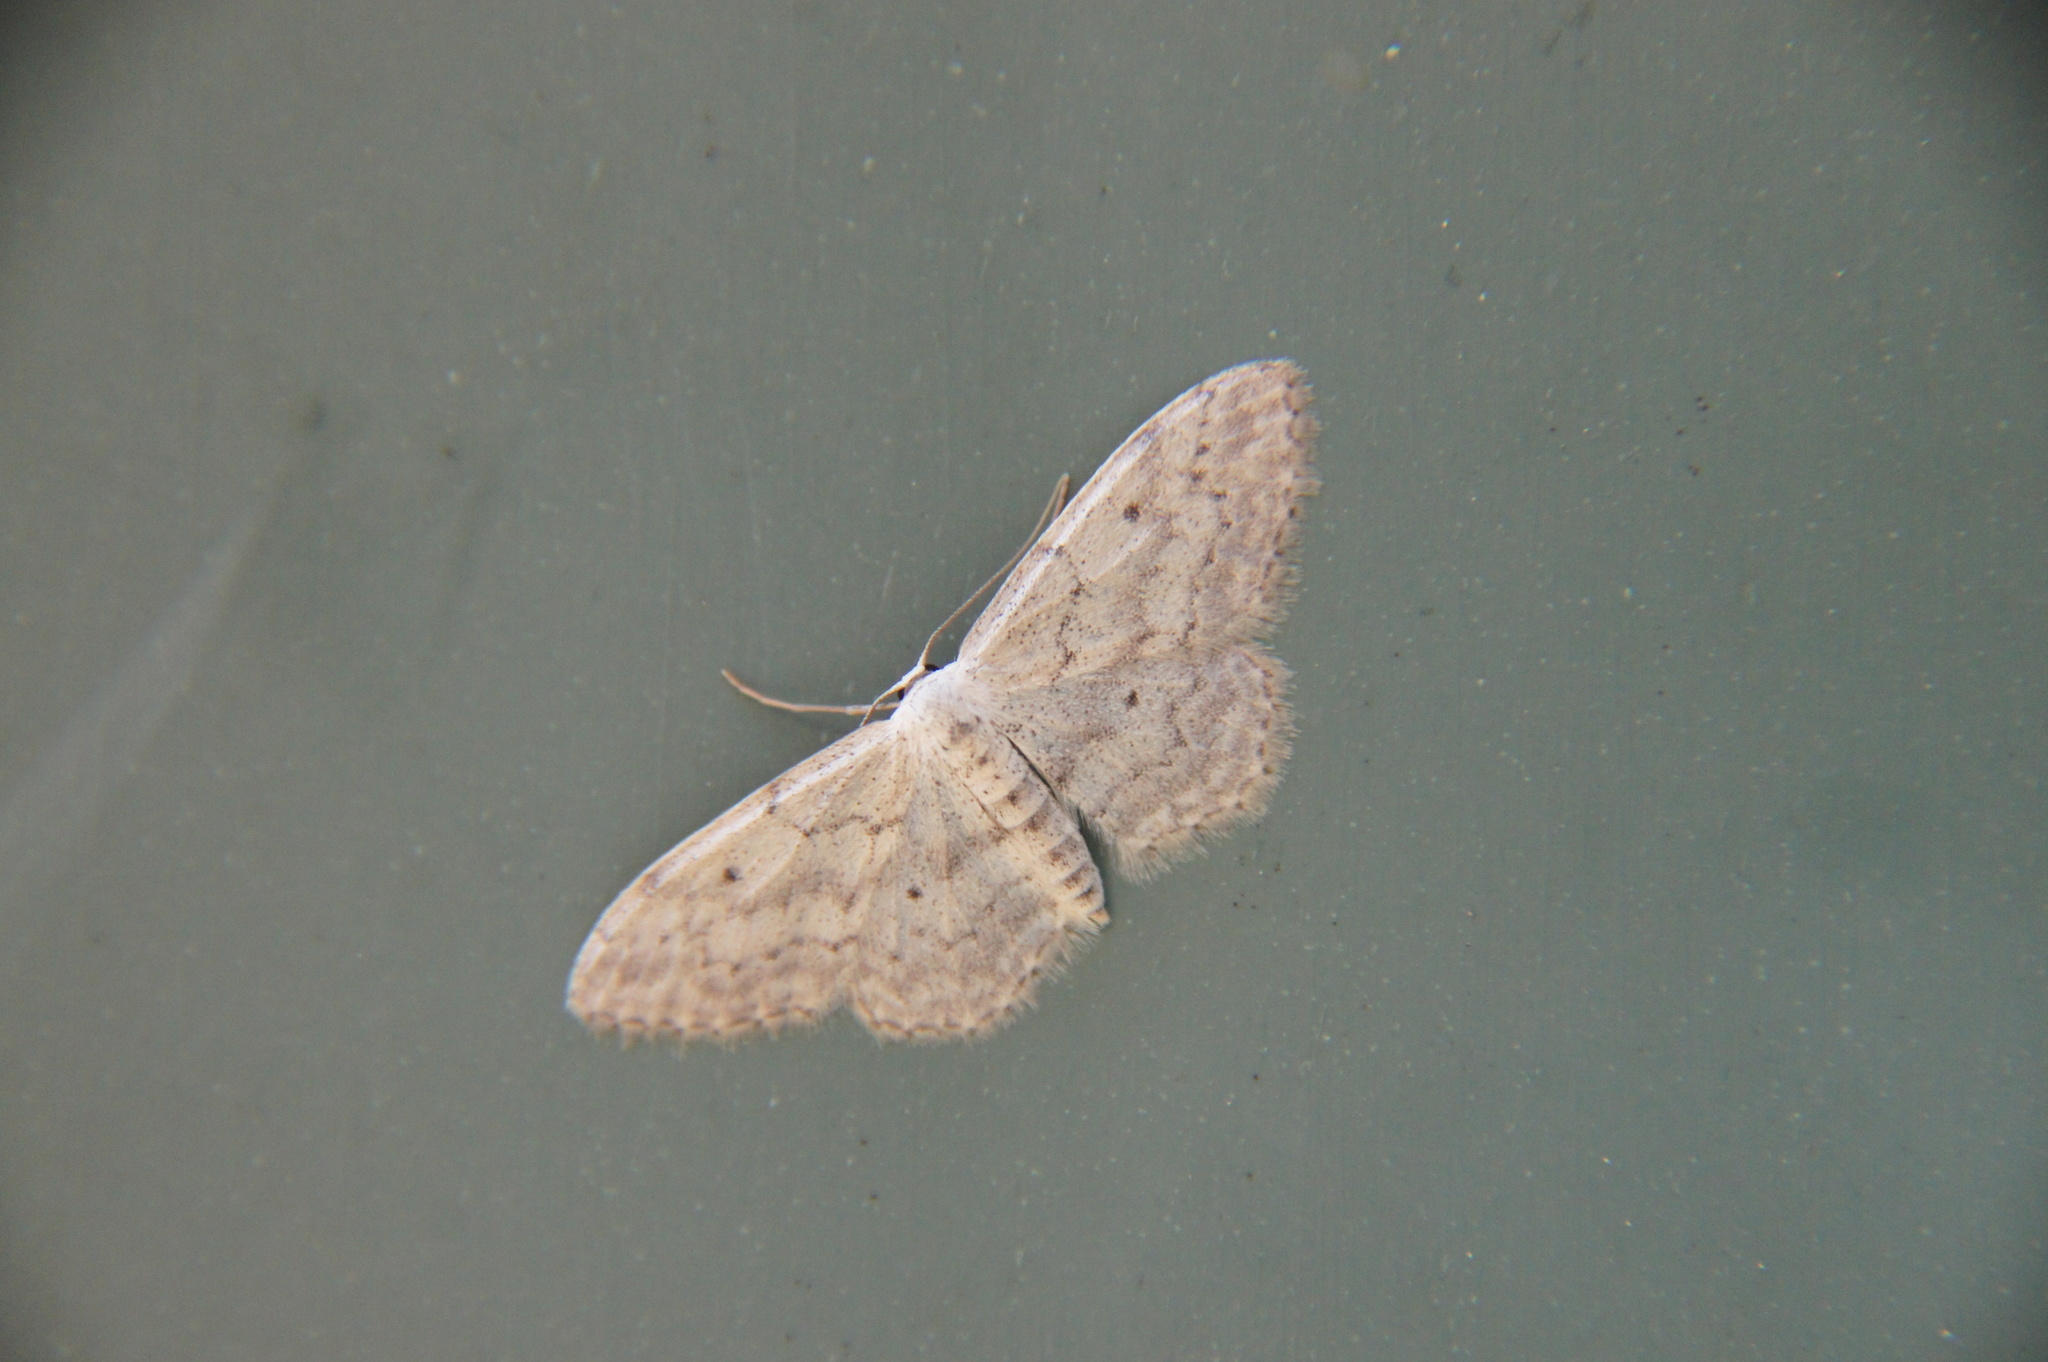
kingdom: Animalia
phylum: Arthropoda
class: Insecta
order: Lepidoptera
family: Geometridae
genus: Idaea
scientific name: Idaea seriata
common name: Small dusty wave
